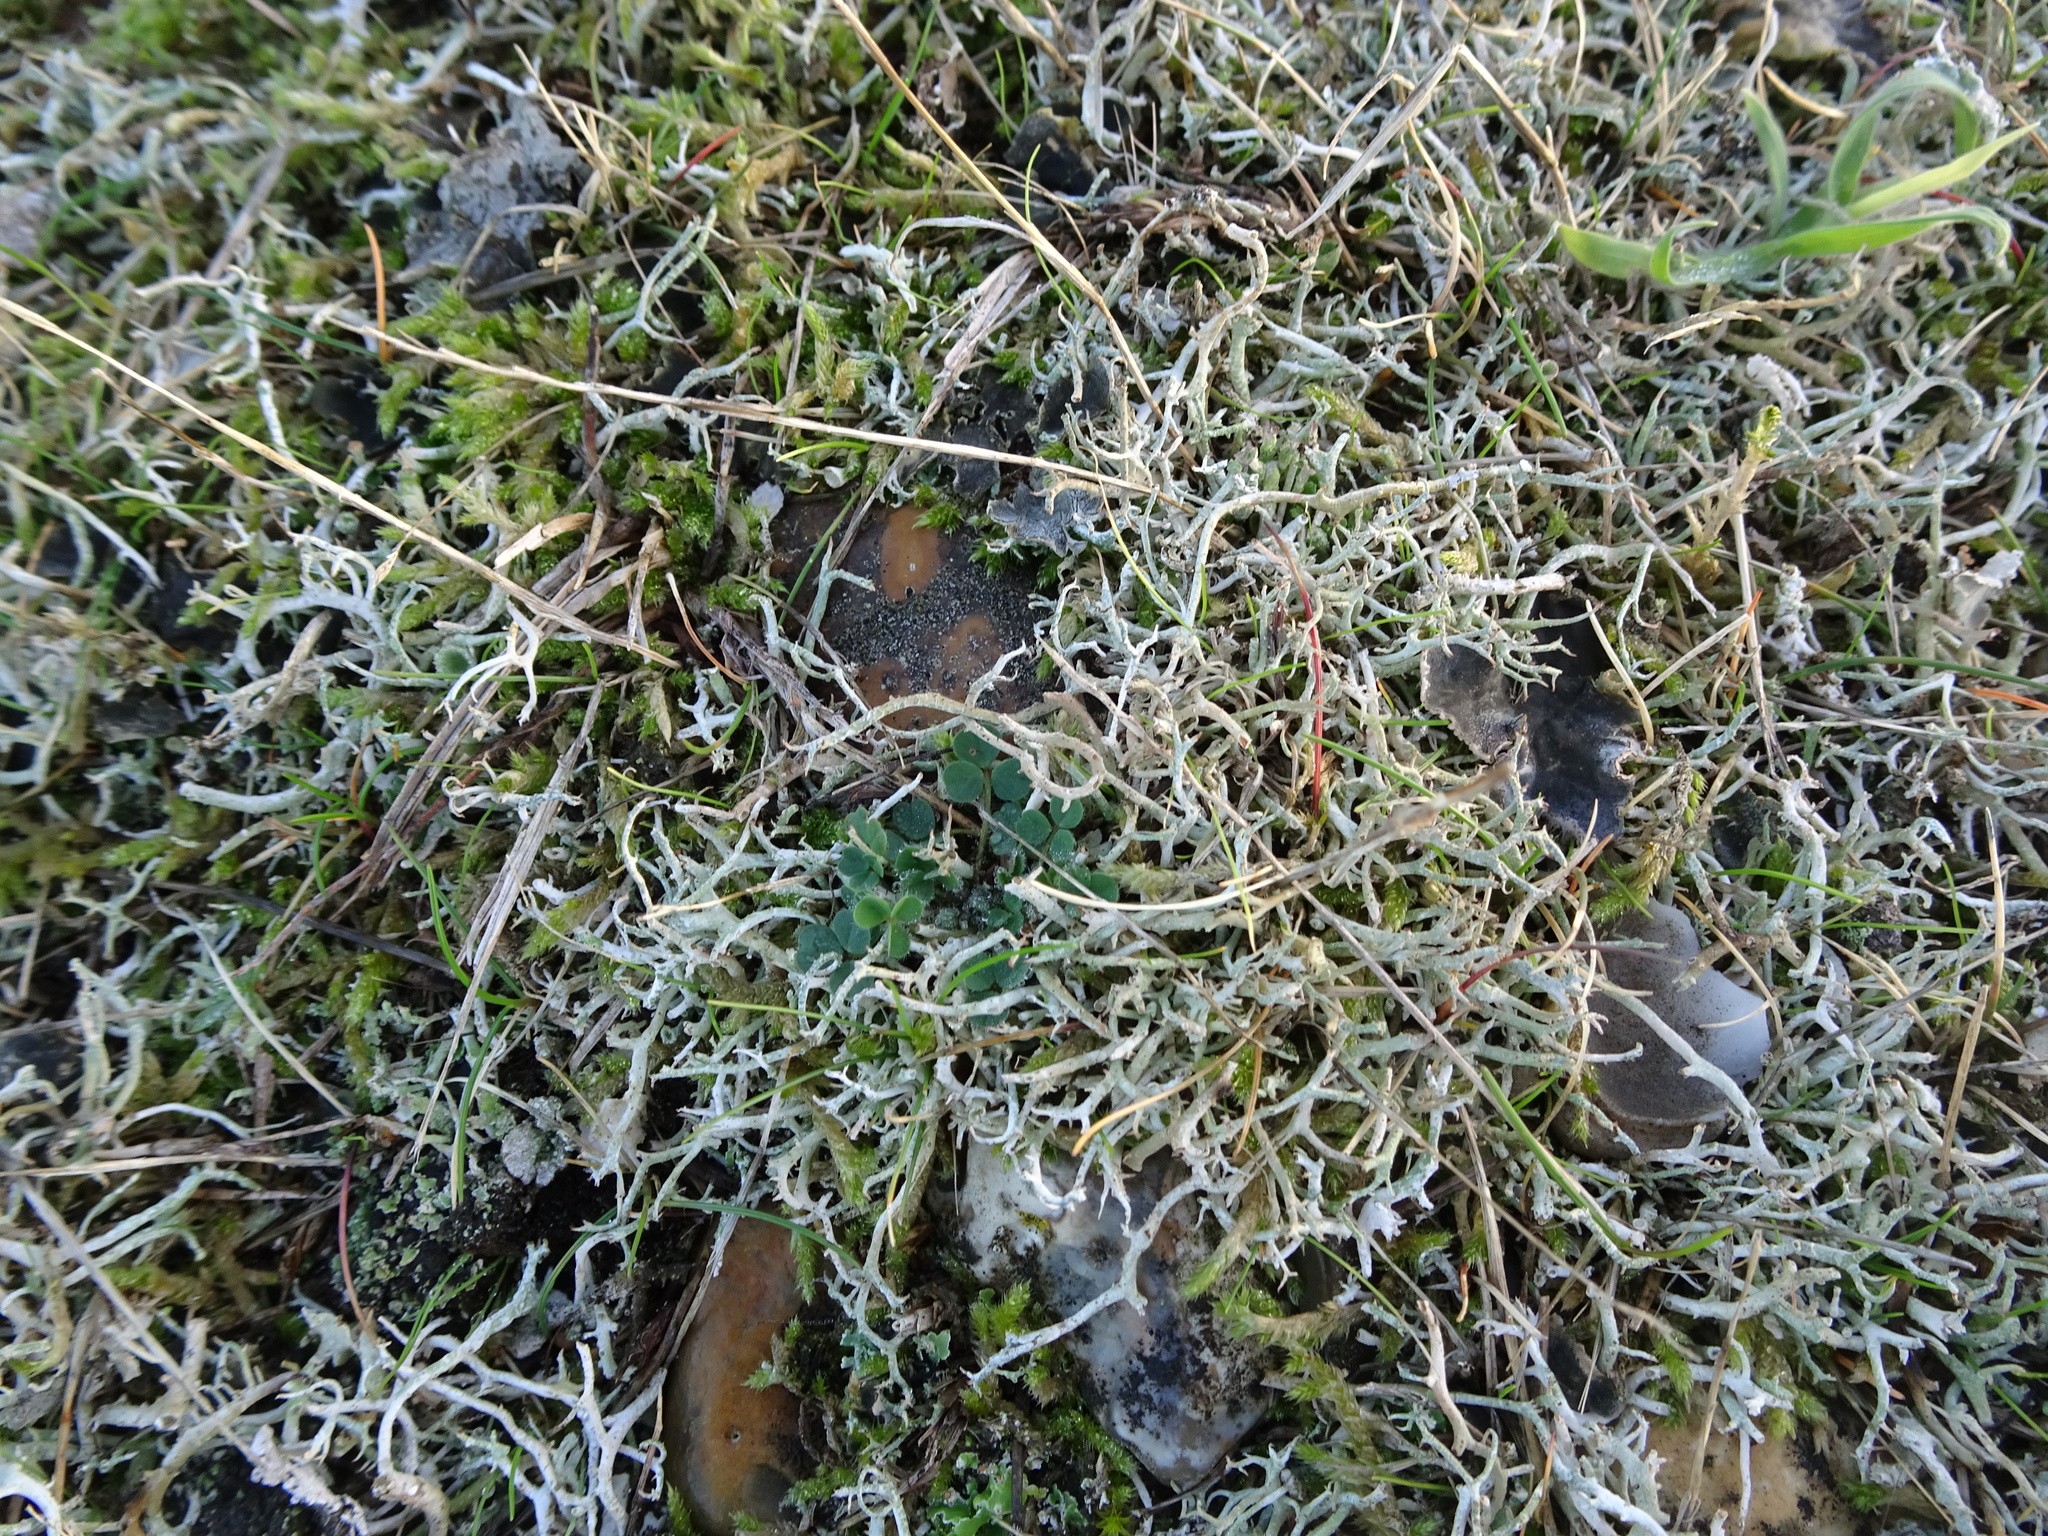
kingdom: Fungi
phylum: Ascomycota
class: Lecanoromycetes
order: Lecanorales
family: Cladoniaceae
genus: Cladonia
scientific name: Cladonia furcata
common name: Many-forked cladonia
